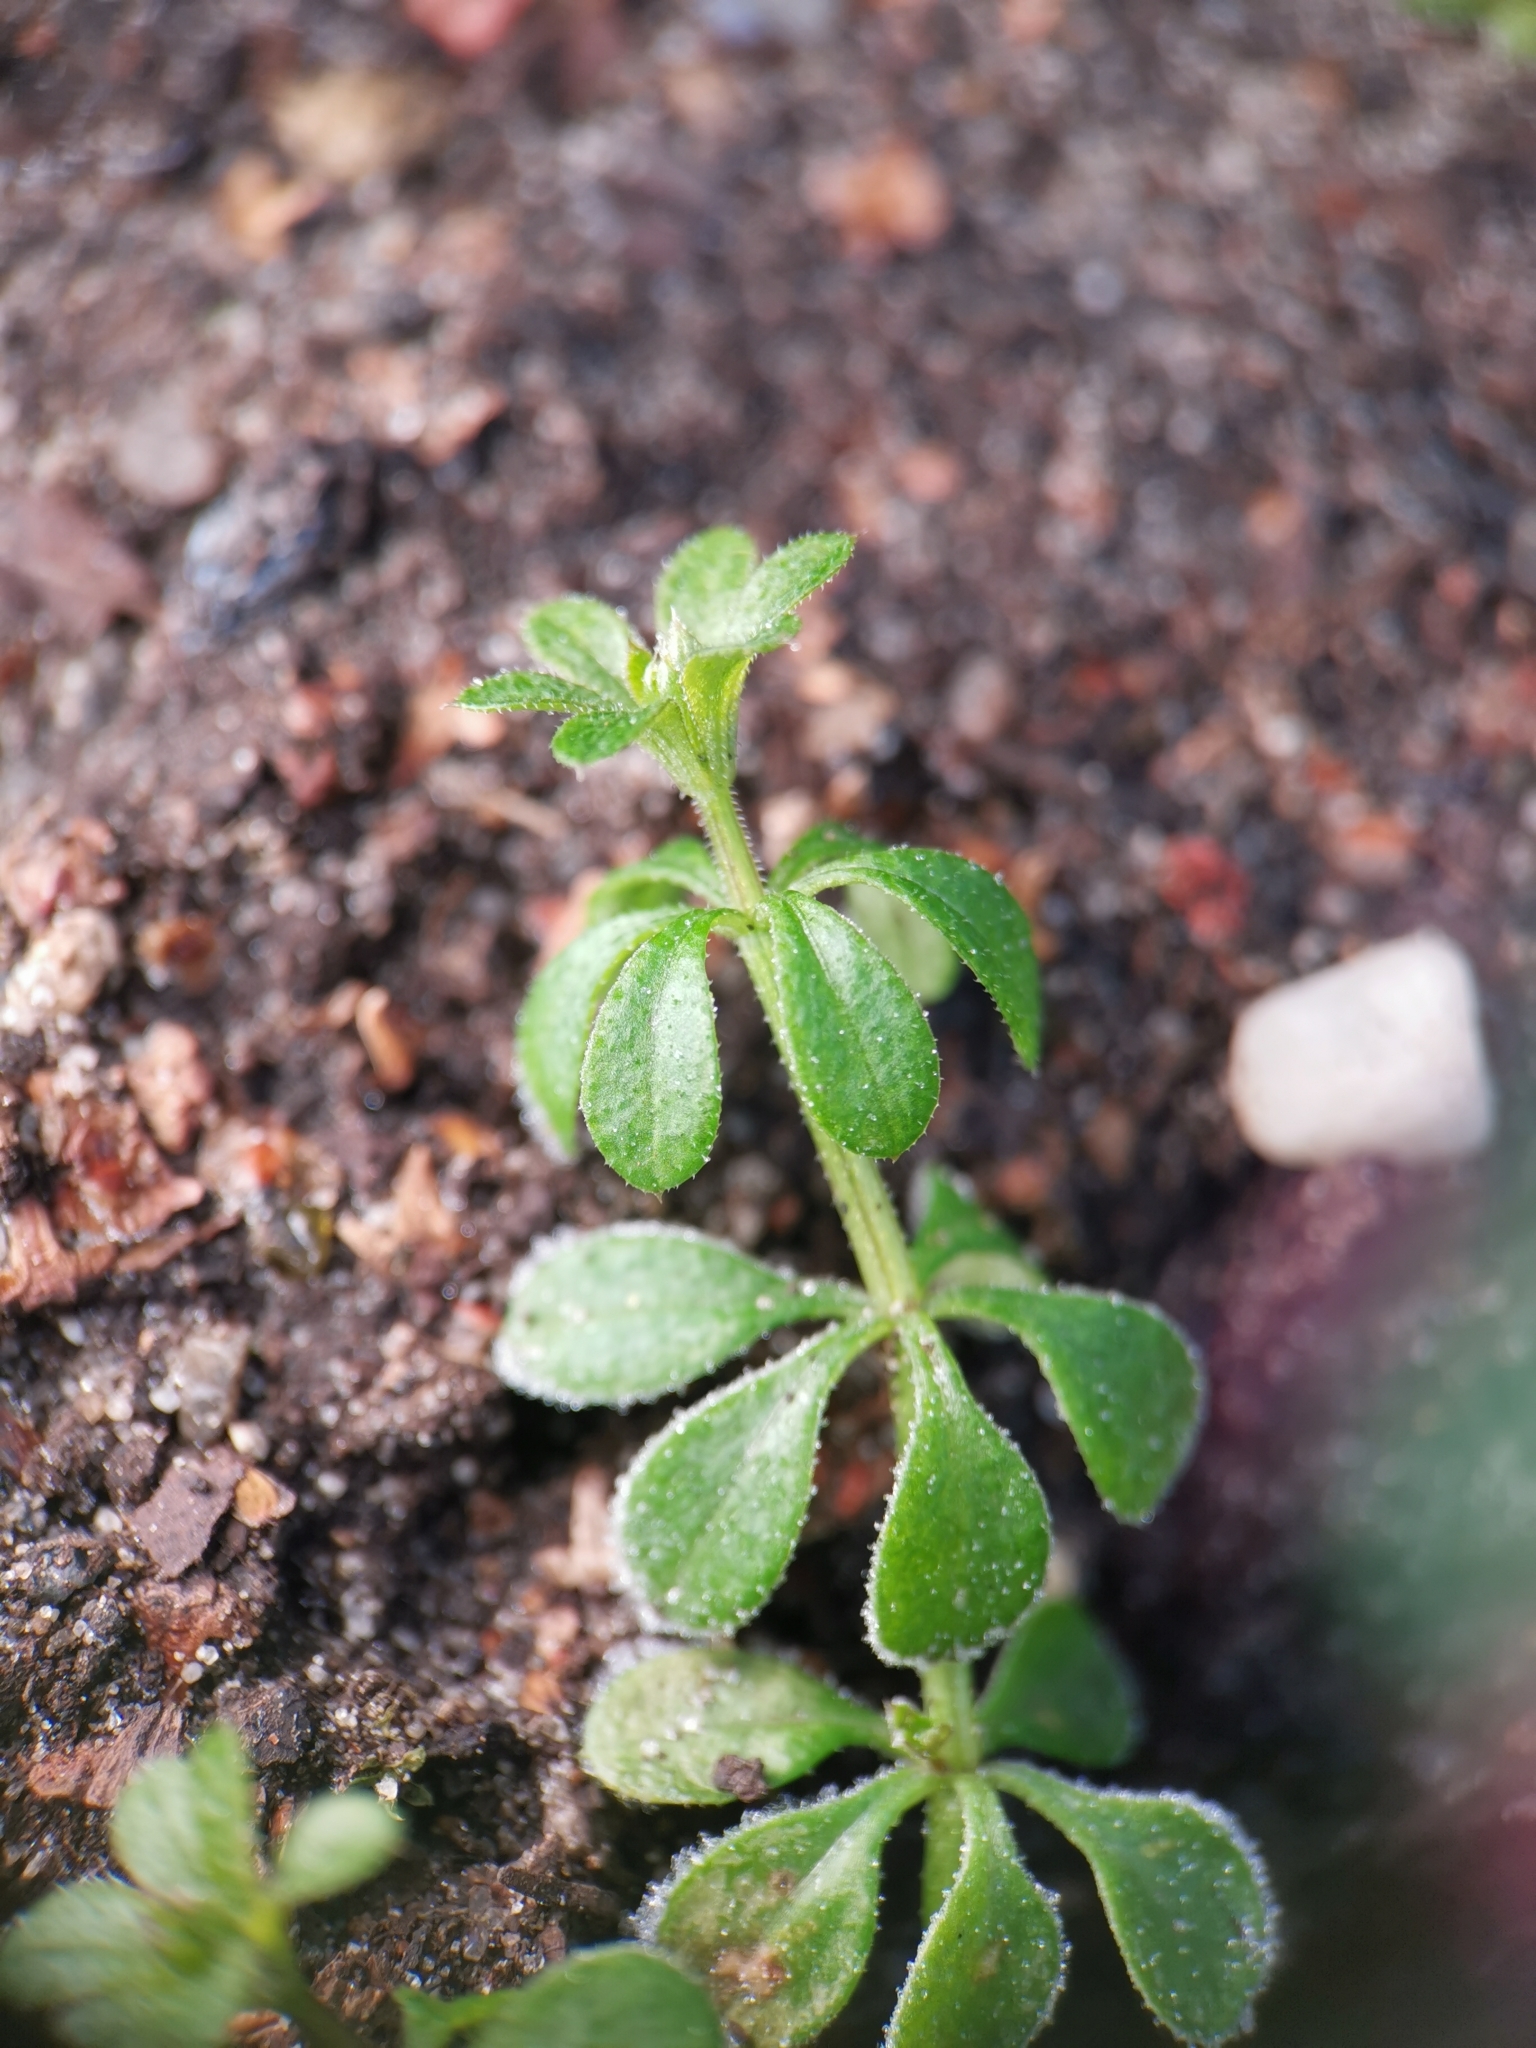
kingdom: Plantae
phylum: Tracheophyta
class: Magnoliopsida
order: Gentianales
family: Rubiaceae
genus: Galium
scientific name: Galium aparine
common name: Cleavers
